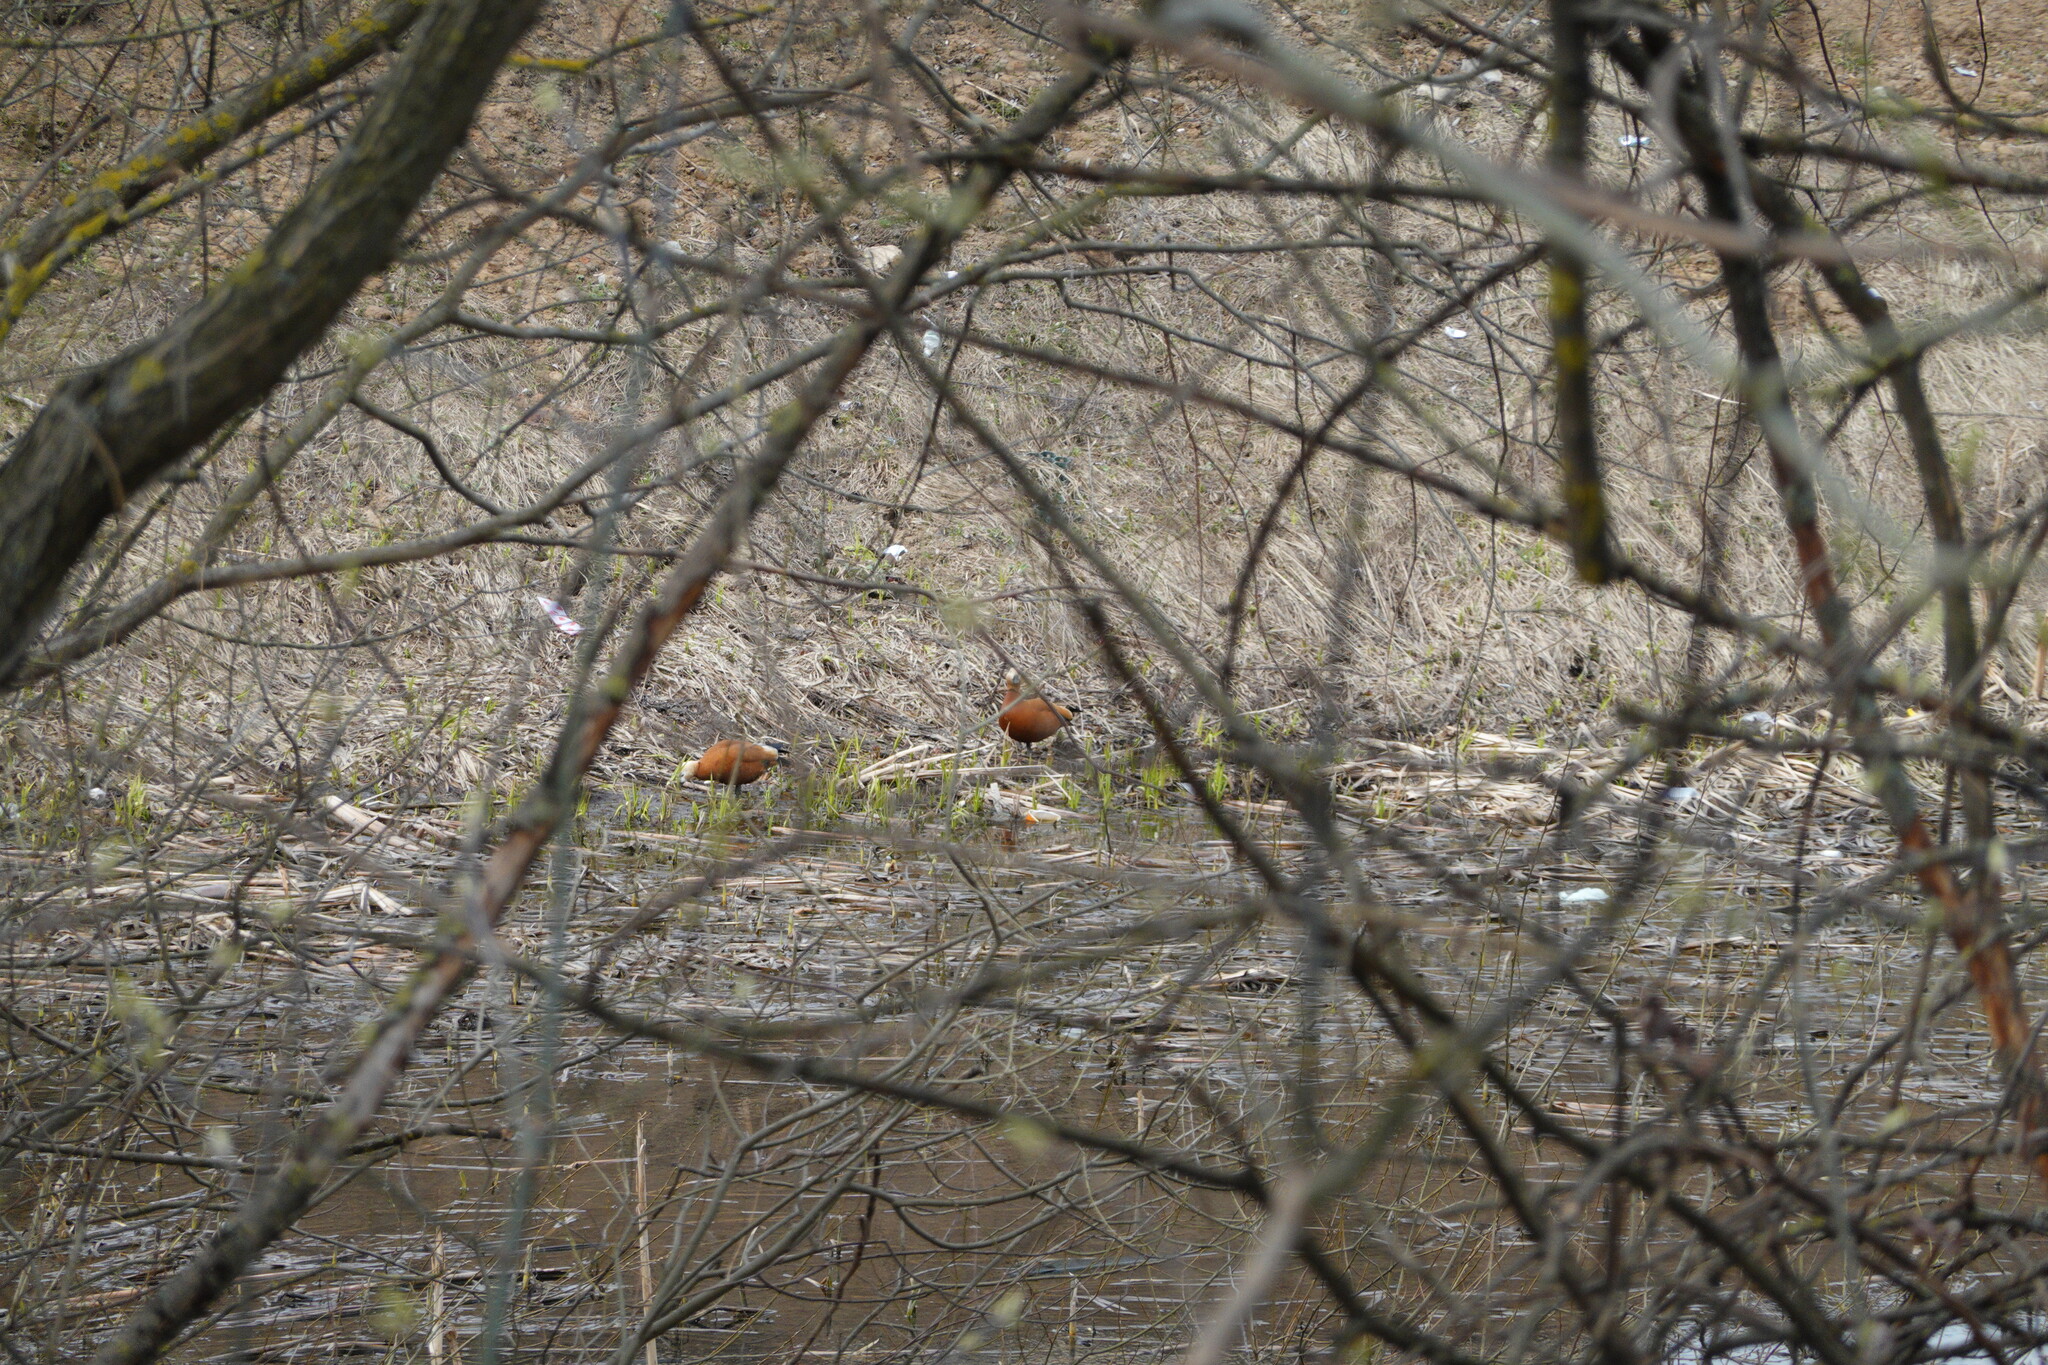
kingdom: Animalia
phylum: Chordata
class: Aves
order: Anseriformes
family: Anatidae
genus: Tadorna
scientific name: Tadorna ferruginea
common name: Ruddy shelduck
